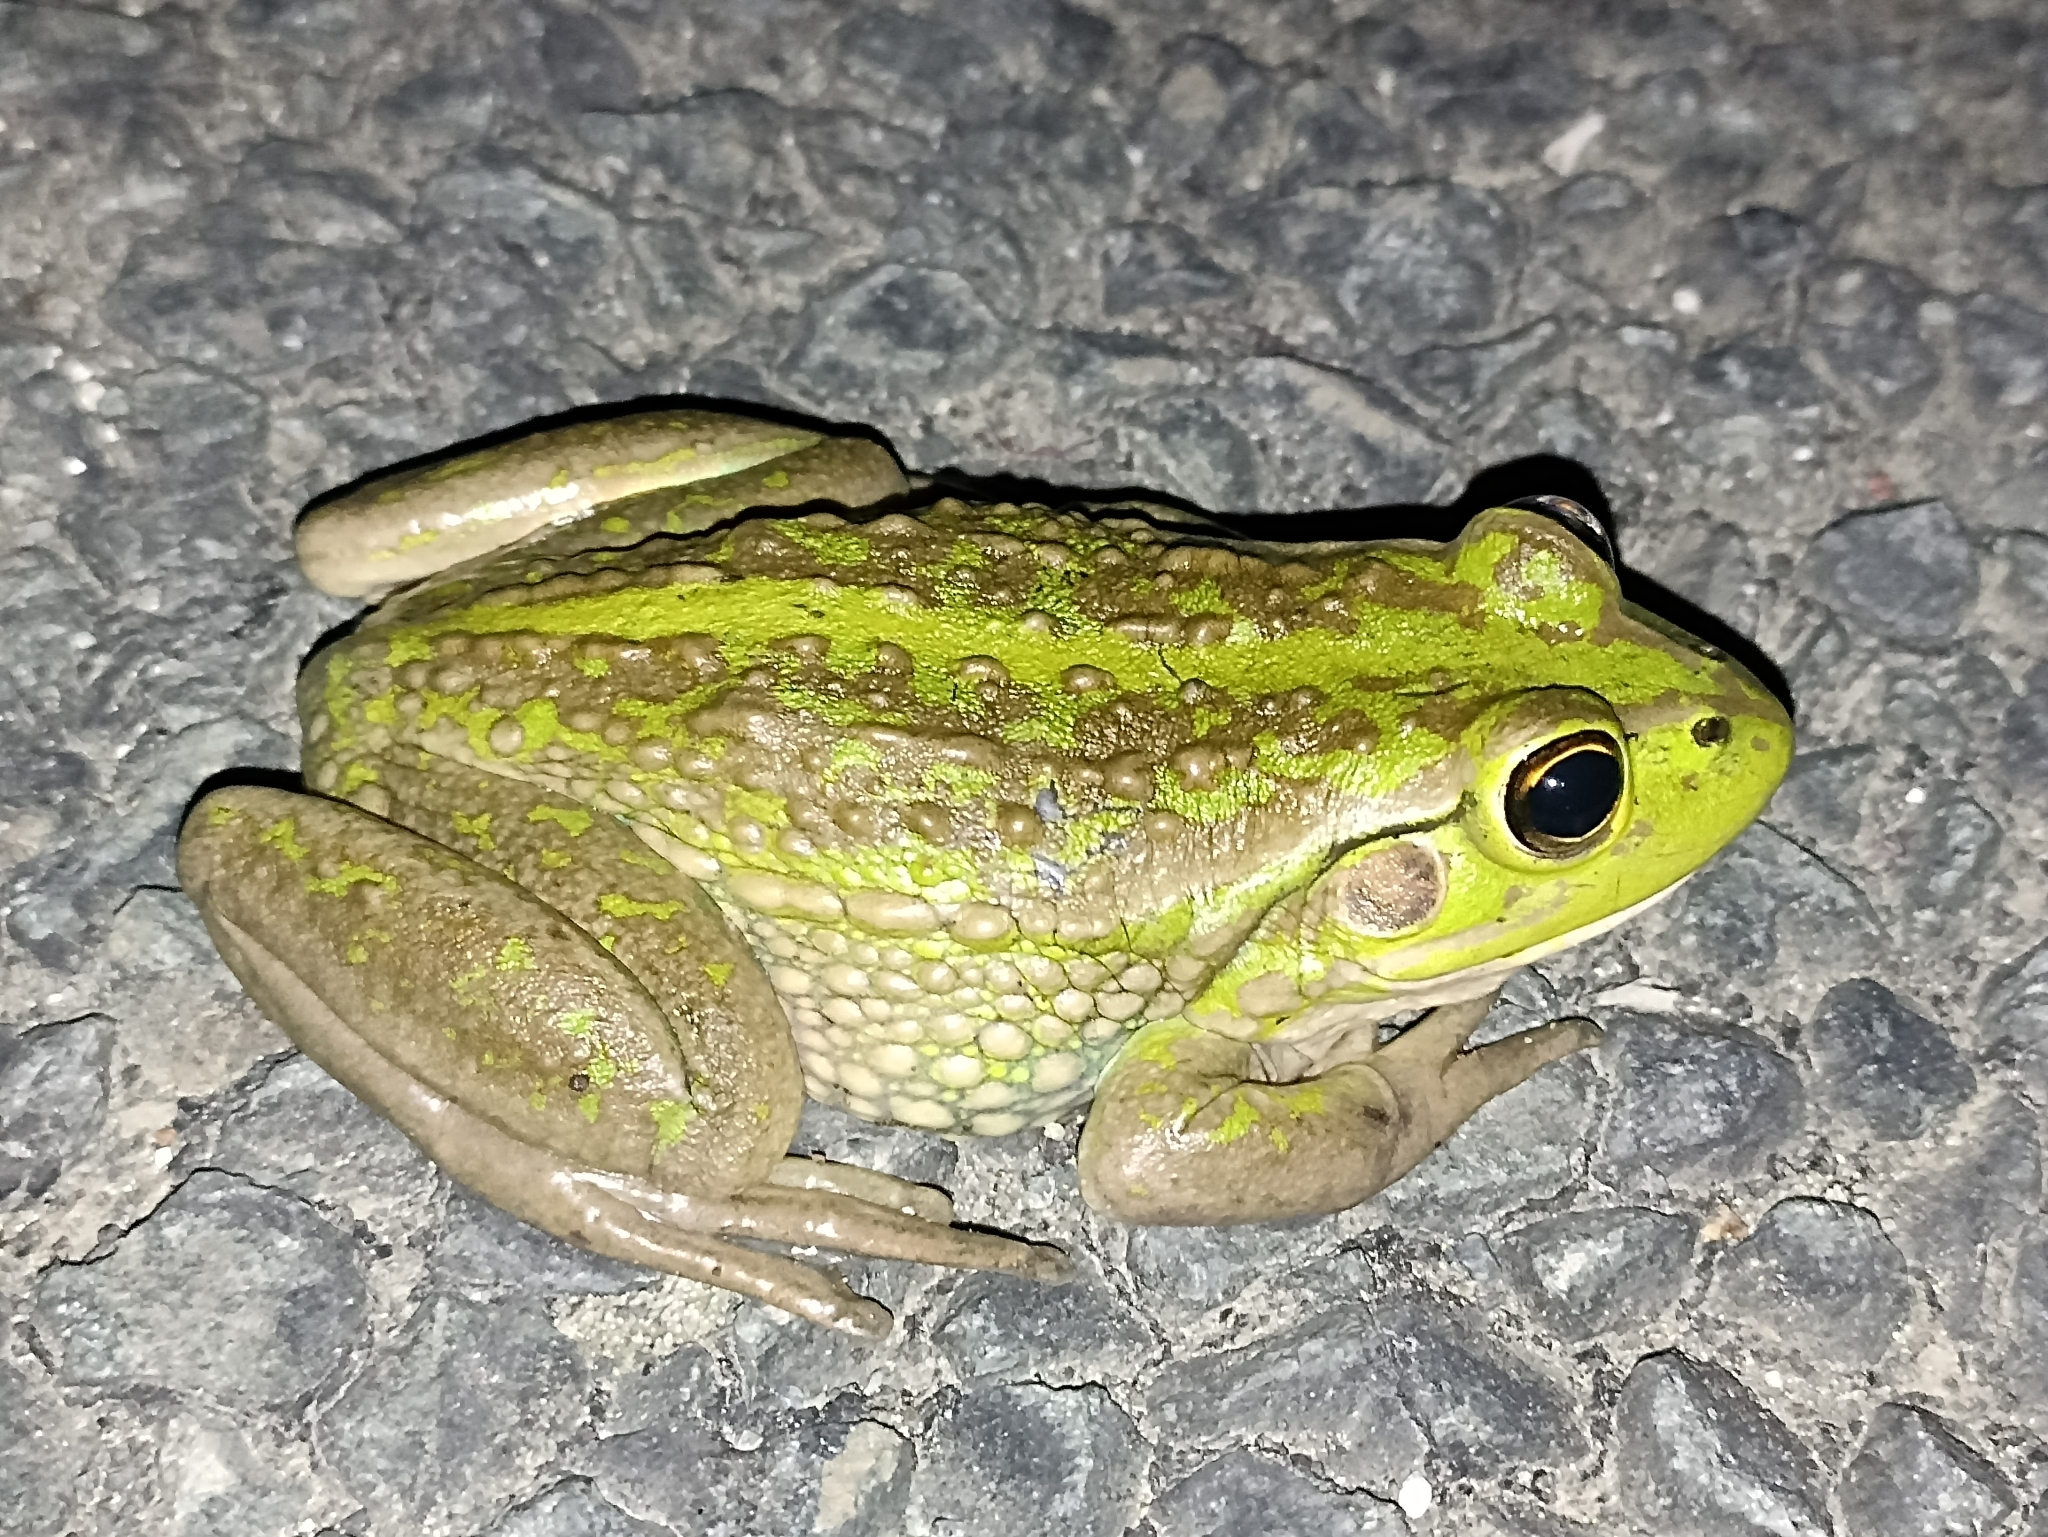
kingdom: Animalia
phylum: Chordata
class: Amphibia
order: Anura
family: Pelodryadidae
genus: Ranoidea
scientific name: Ranoidea raniformis
